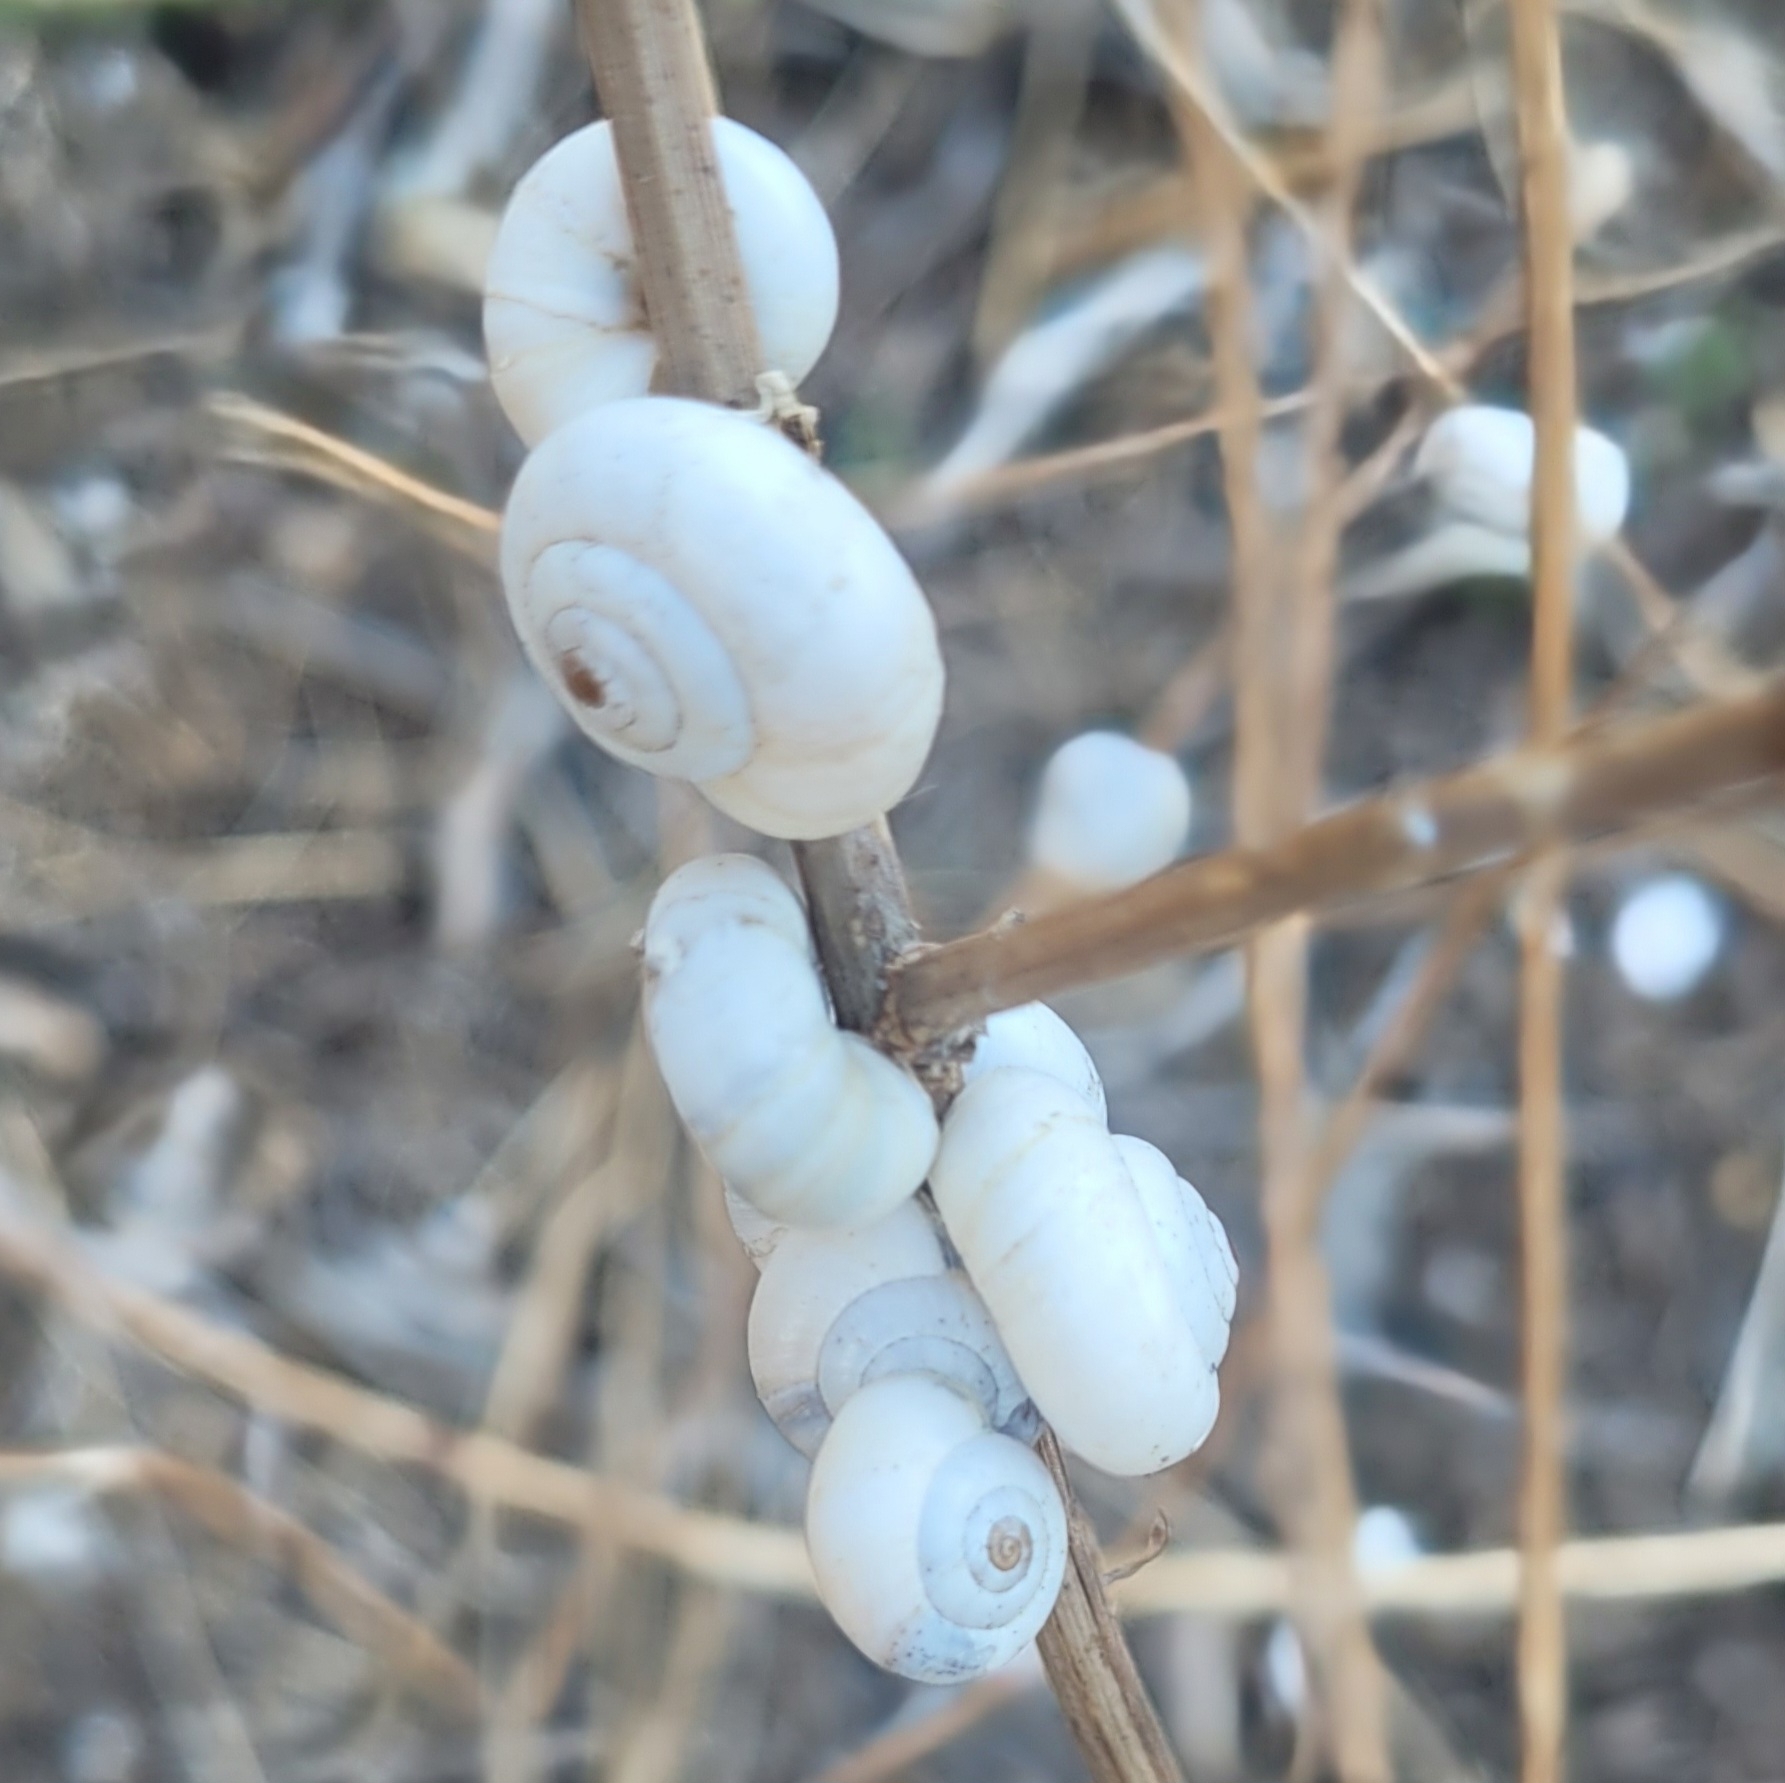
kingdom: Animalia
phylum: Mollusca
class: Gastropoda
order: Stylommatophora
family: Geomitridae
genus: Xeropicta
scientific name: Xeropicta derbentina
